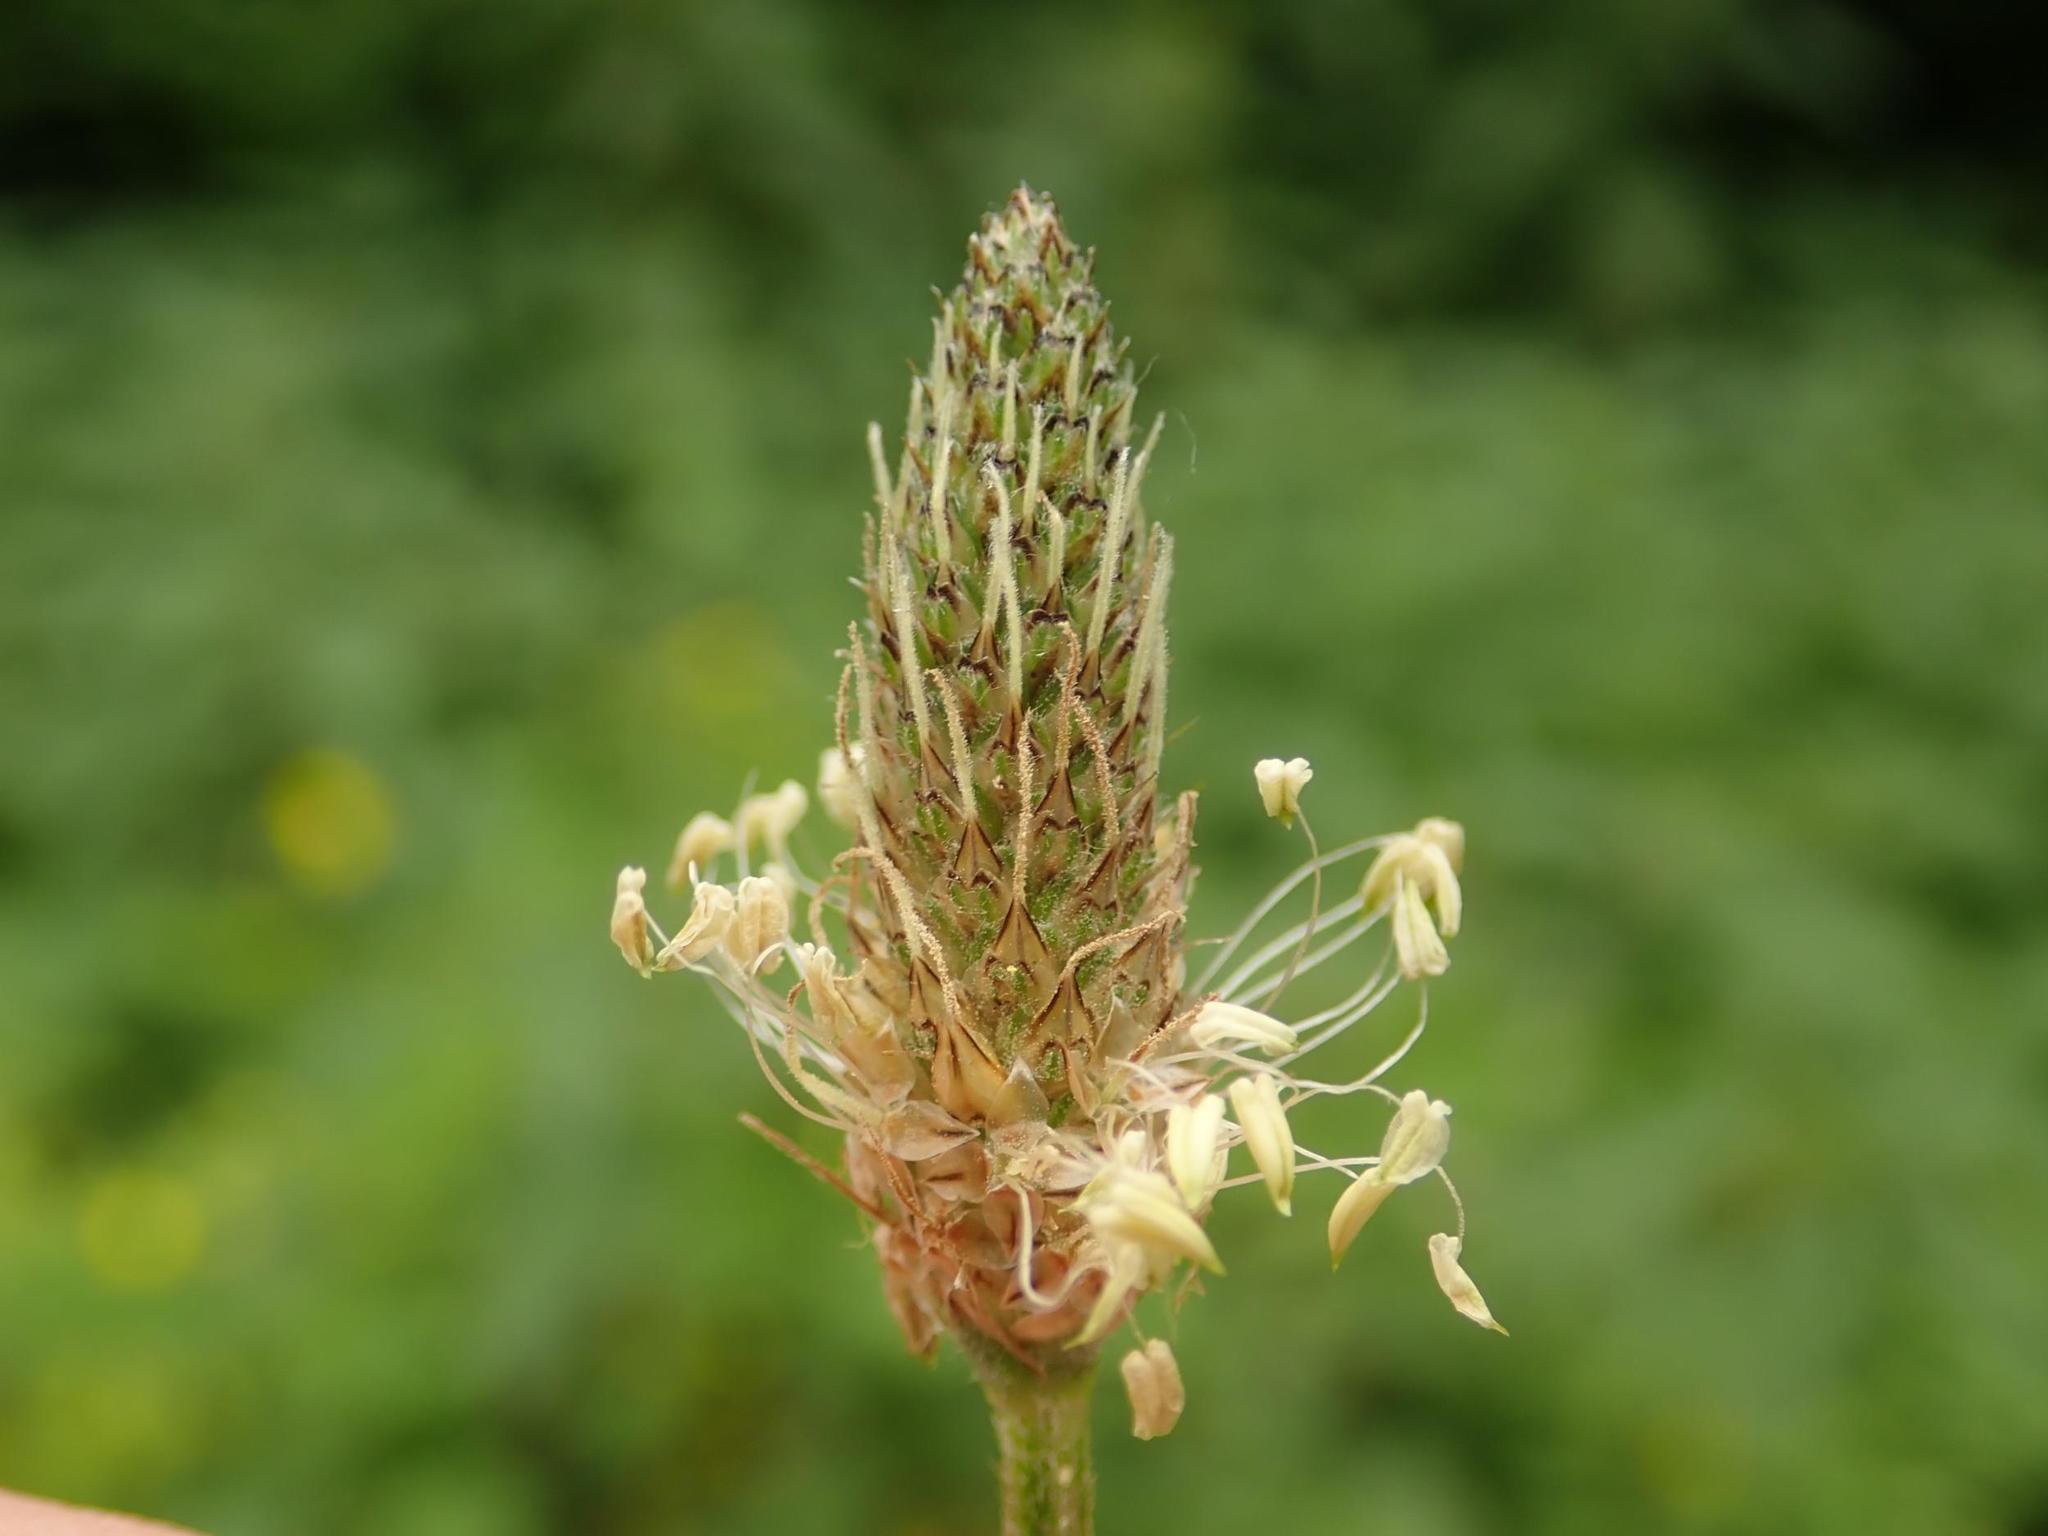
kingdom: Plantae
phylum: Tracheophyta
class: Magnoliopsida
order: Lamiales
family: Plantaginaceae
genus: Plantago
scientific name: Plantago lanceolata
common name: Ribwort plantain
